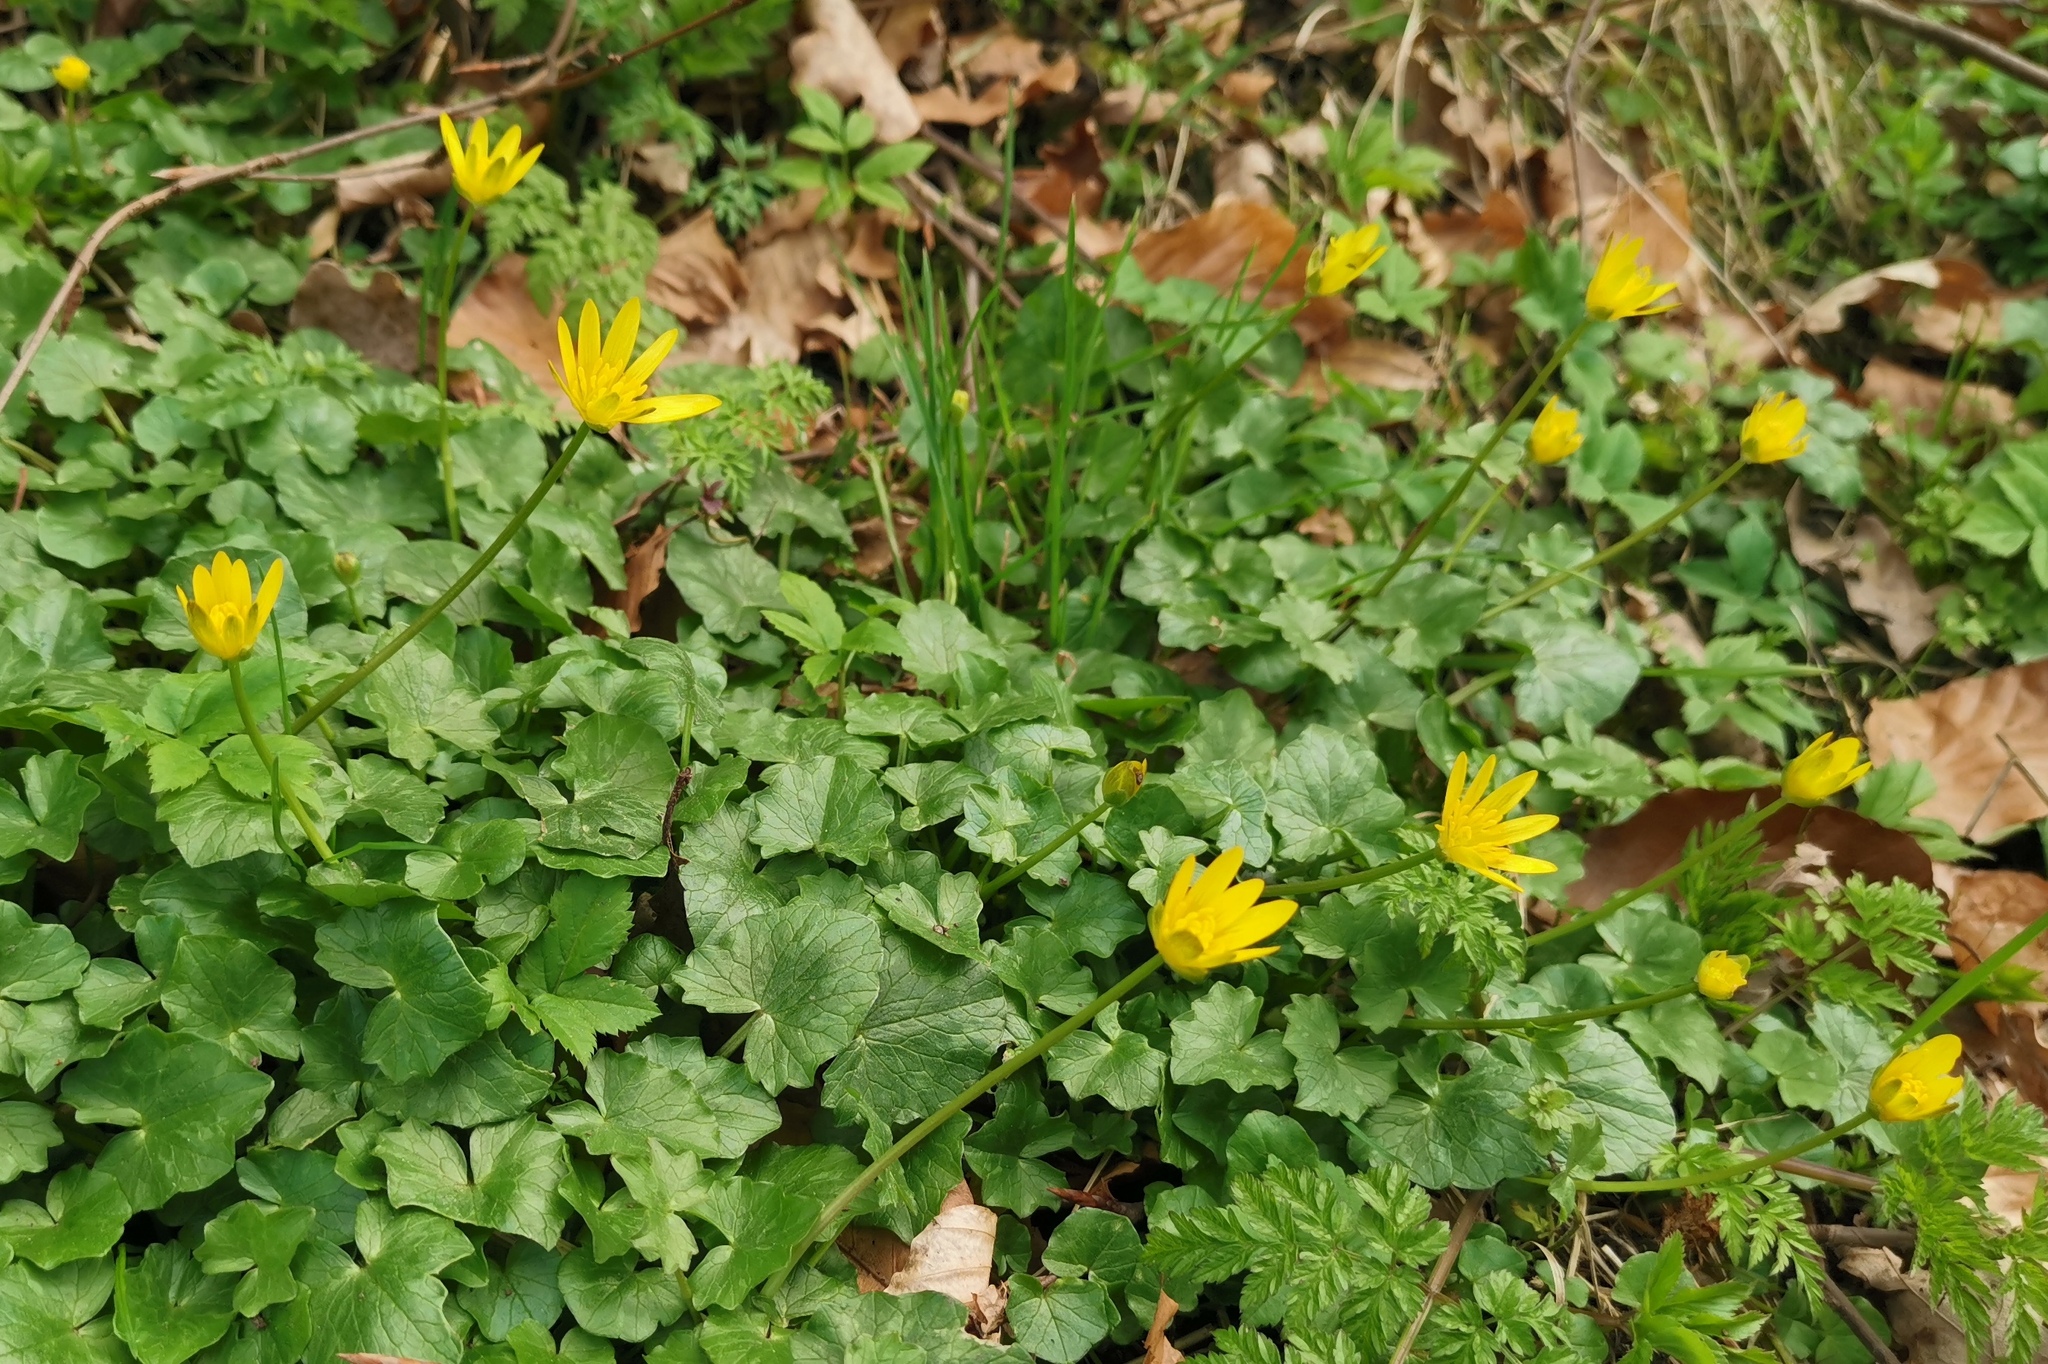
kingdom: Plantae
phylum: Tracheophyta
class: Magnoliopsida
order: Ranunculales
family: Ranunculaceae
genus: Ficaria
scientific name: Ficaria verna
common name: Lesser celandine
